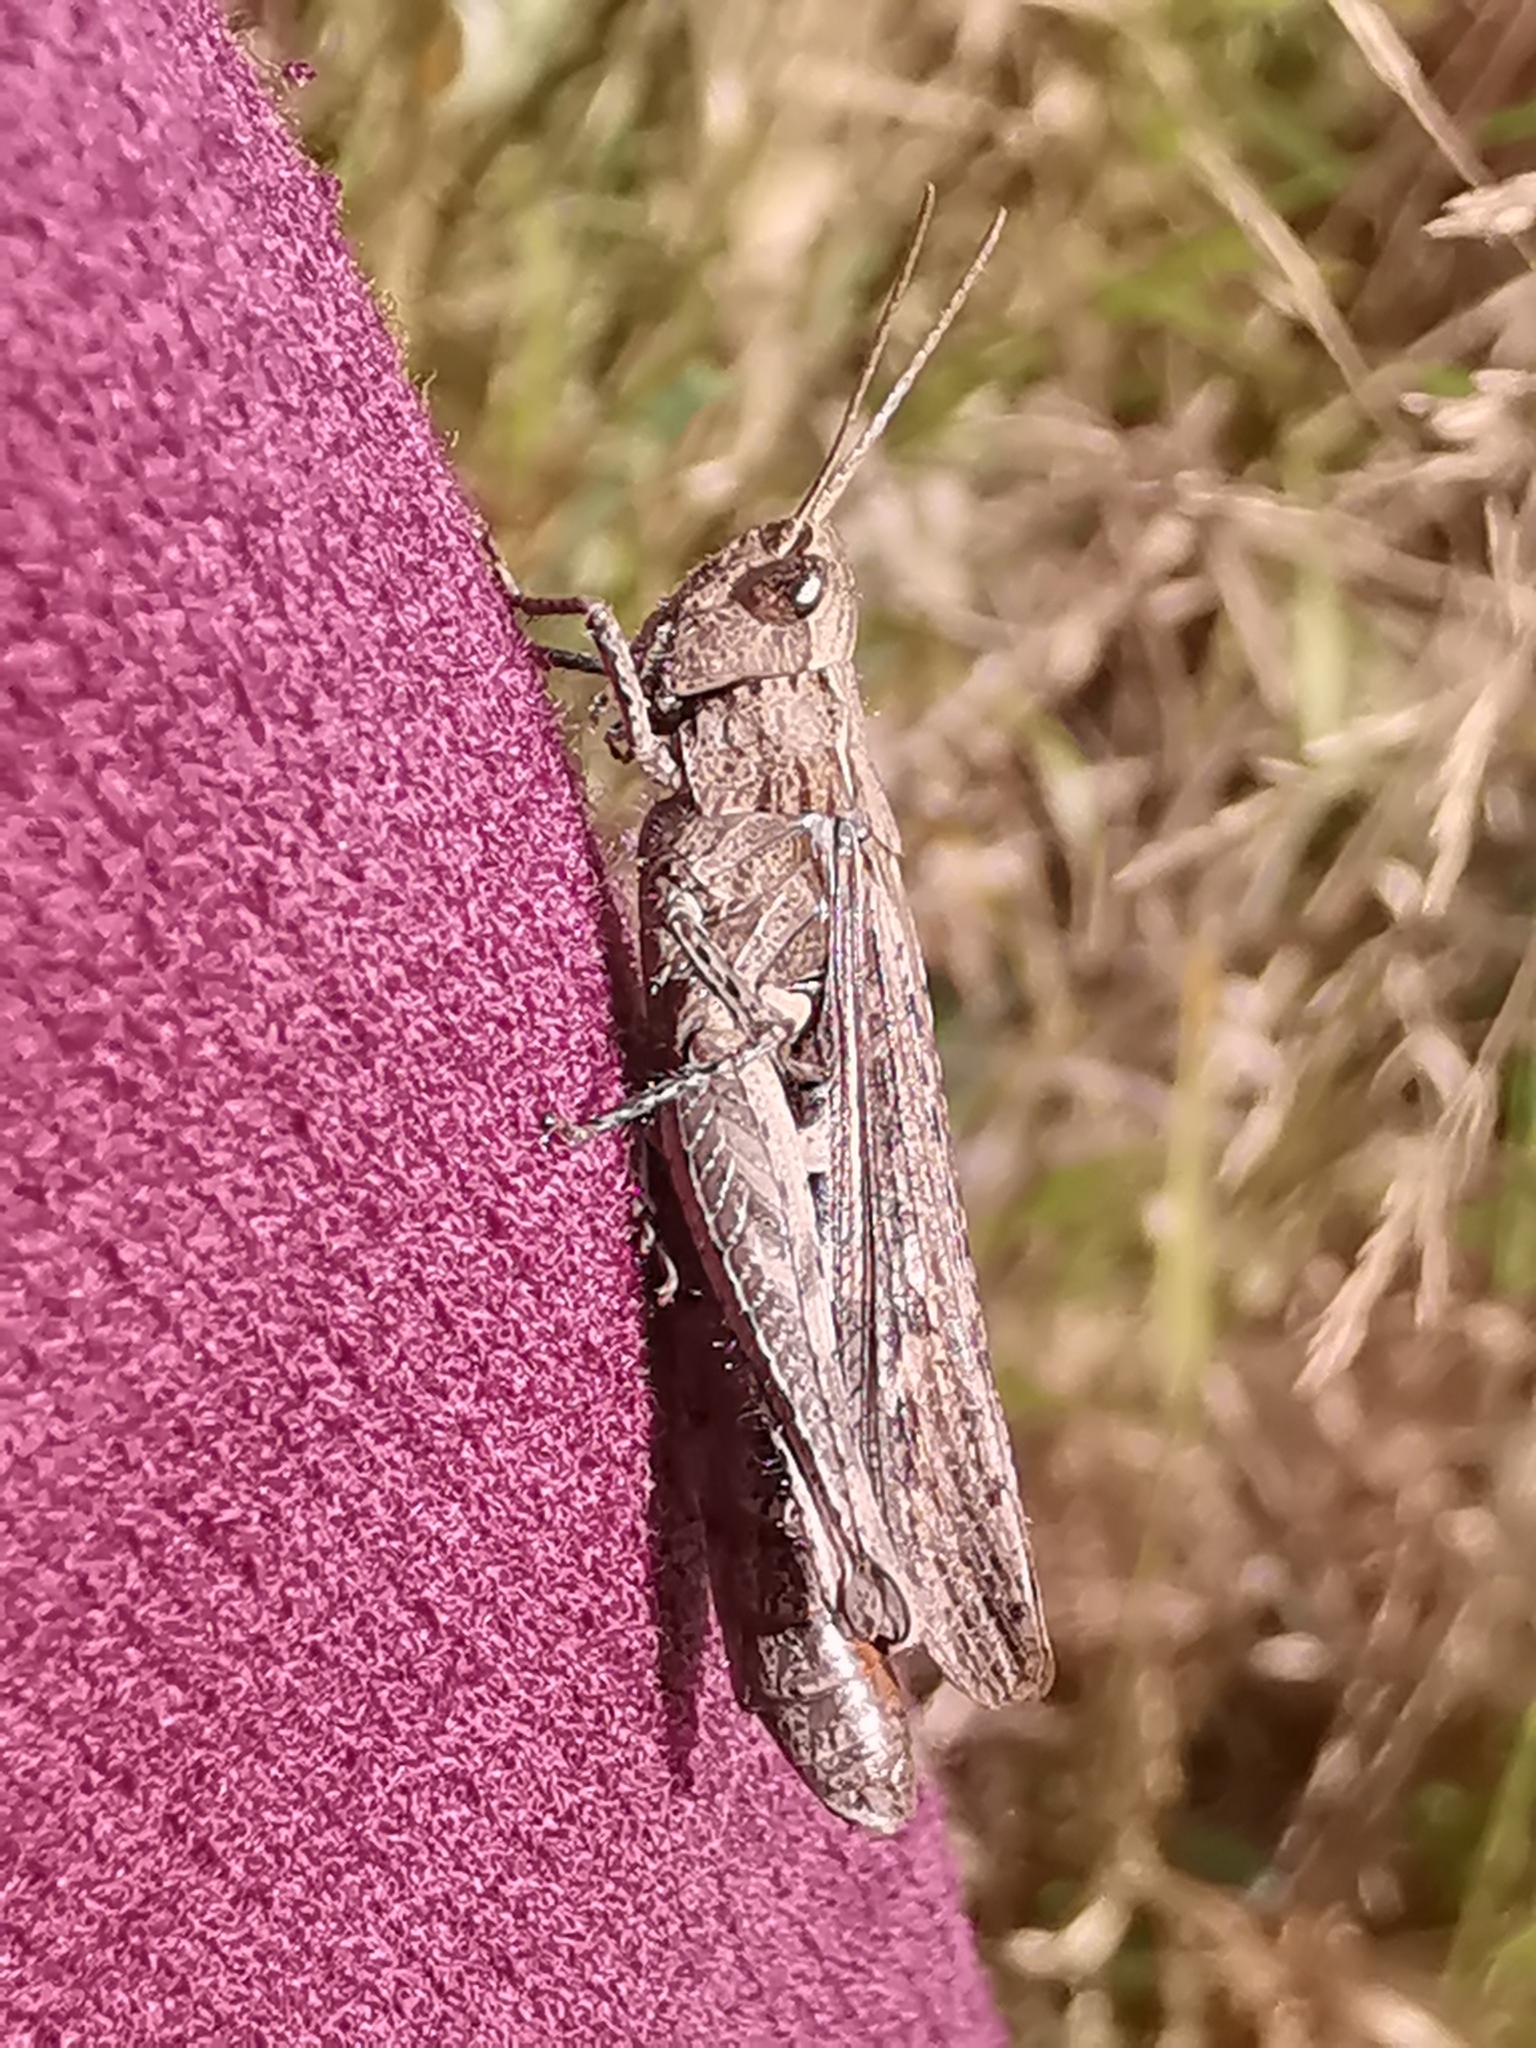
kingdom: Animalia
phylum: Arthropoda
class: Insecta
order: Orthoptera
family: Acrididae
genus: Chorthippus
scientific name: Chorthippus brunneus
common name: Field grasshopper
